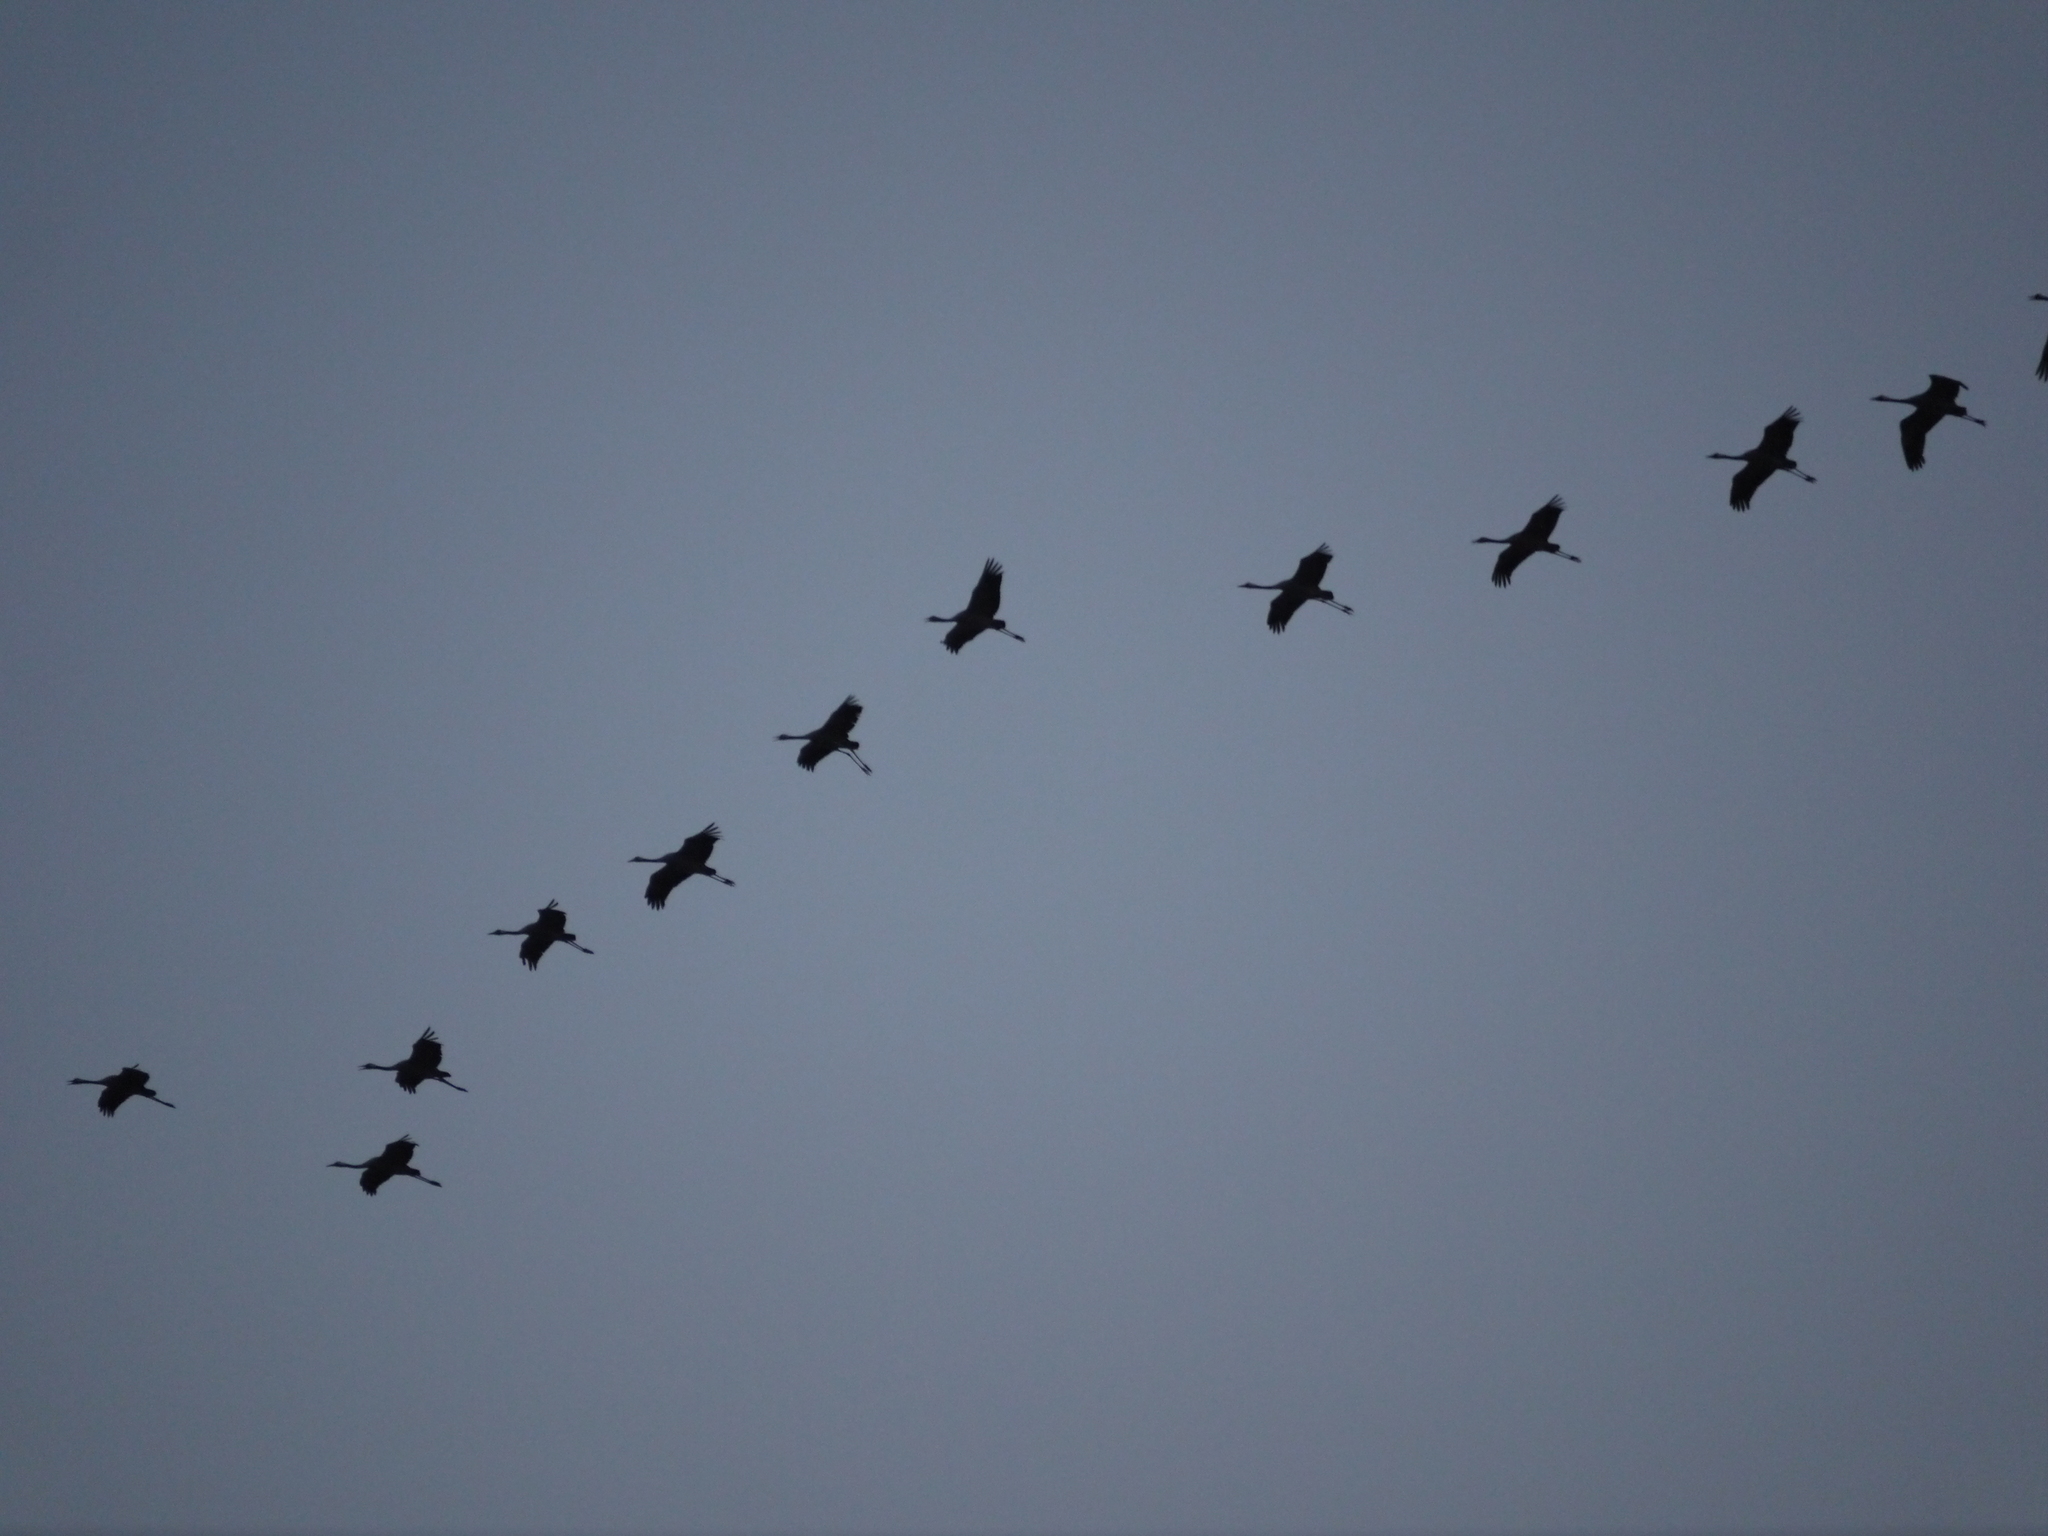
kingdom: Animalia
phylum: Chordata
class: Aves
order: Gruiformes
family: Gruidae
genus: Grus
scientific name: Grus grus
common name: Common crane
